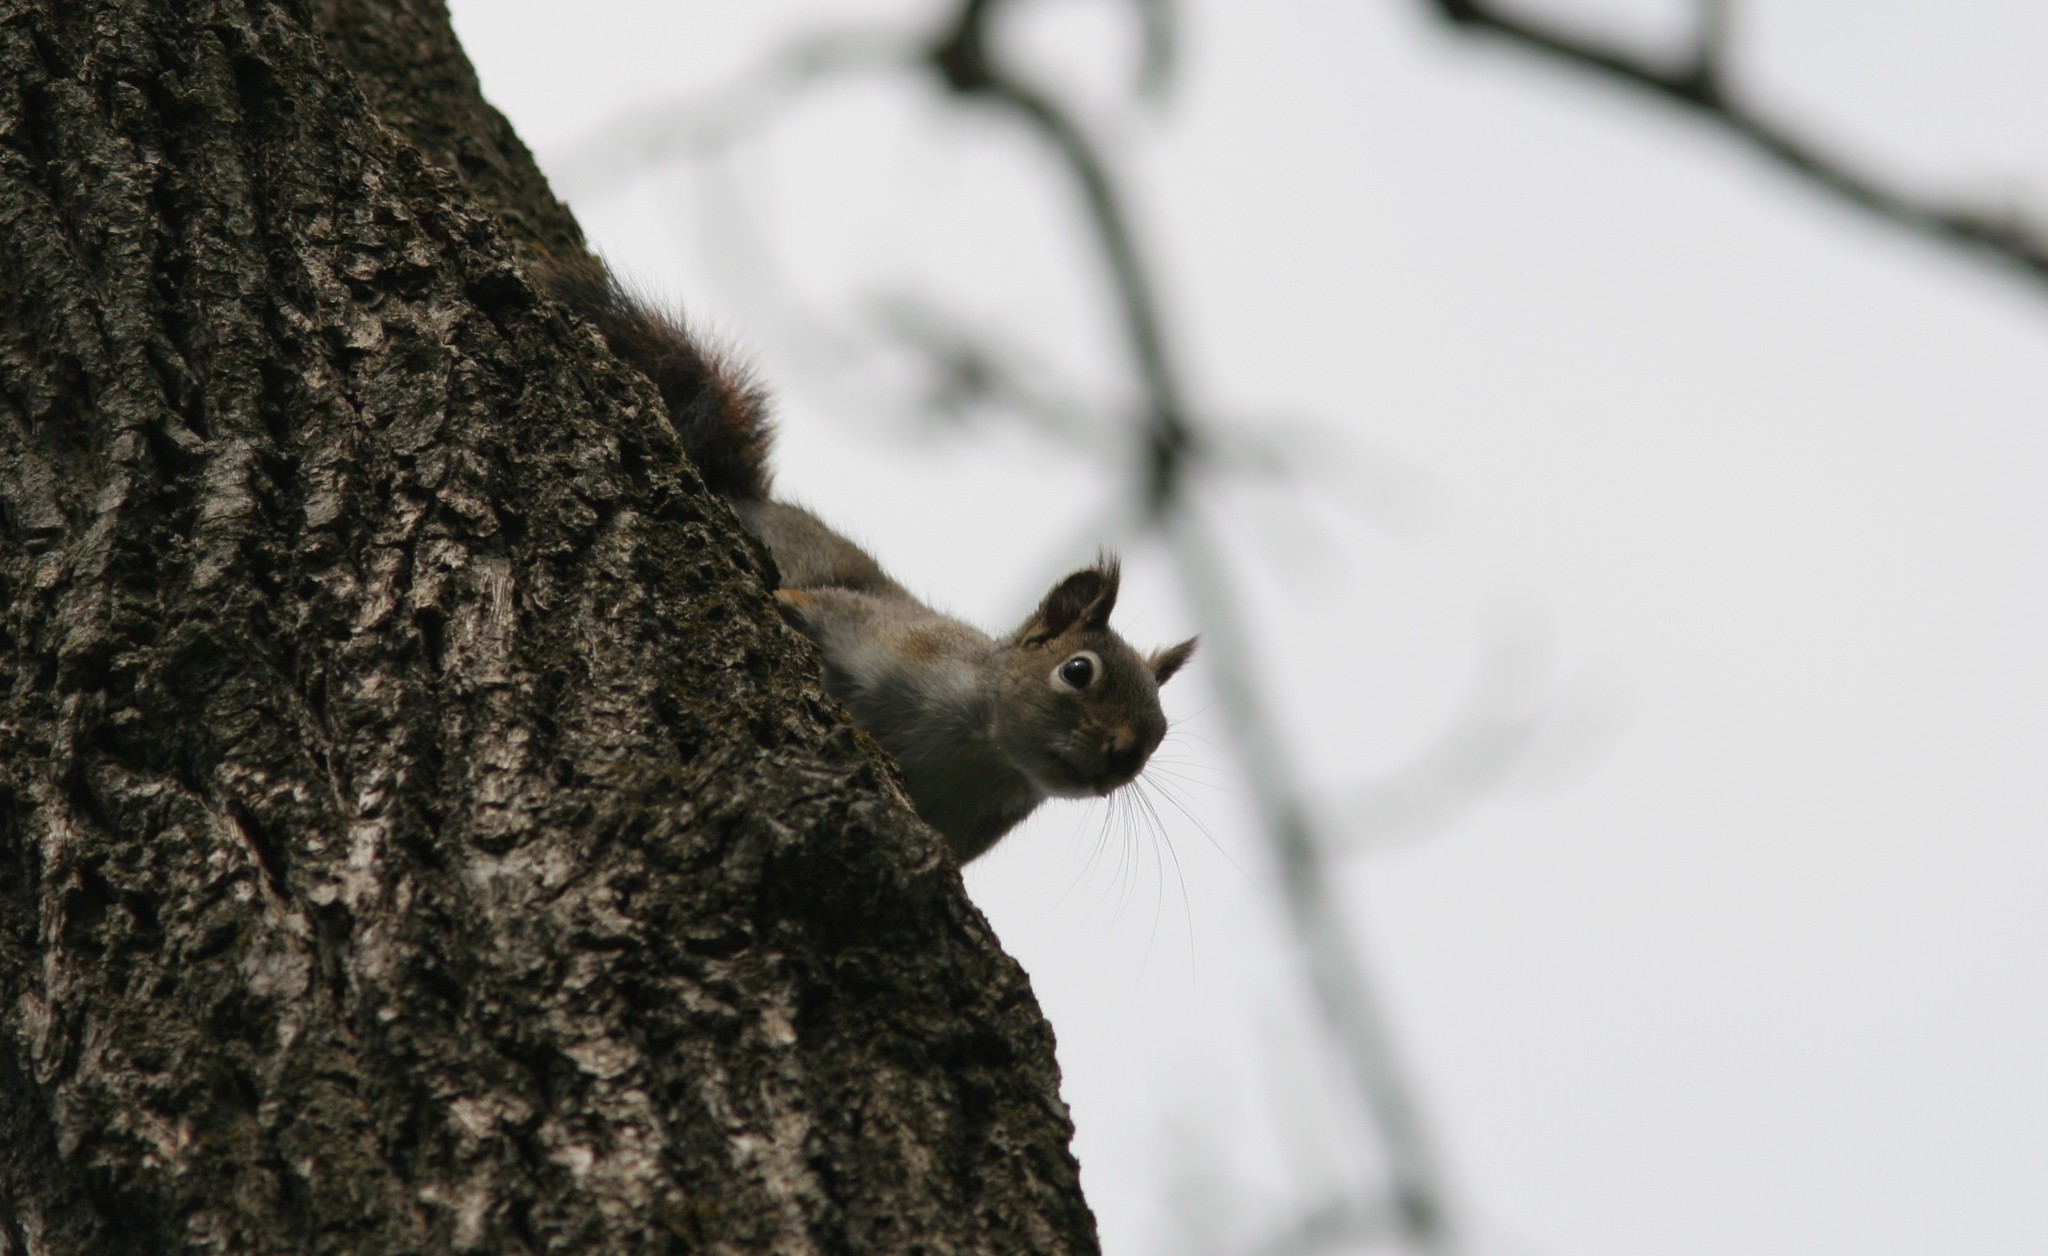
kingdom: Animalia
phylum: Chordata
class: Mammalia
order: Rodentia
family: Sciuridae
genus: Tamiasciurus
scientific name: Tamiasciurus hudsonicus
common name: Red squirrel
